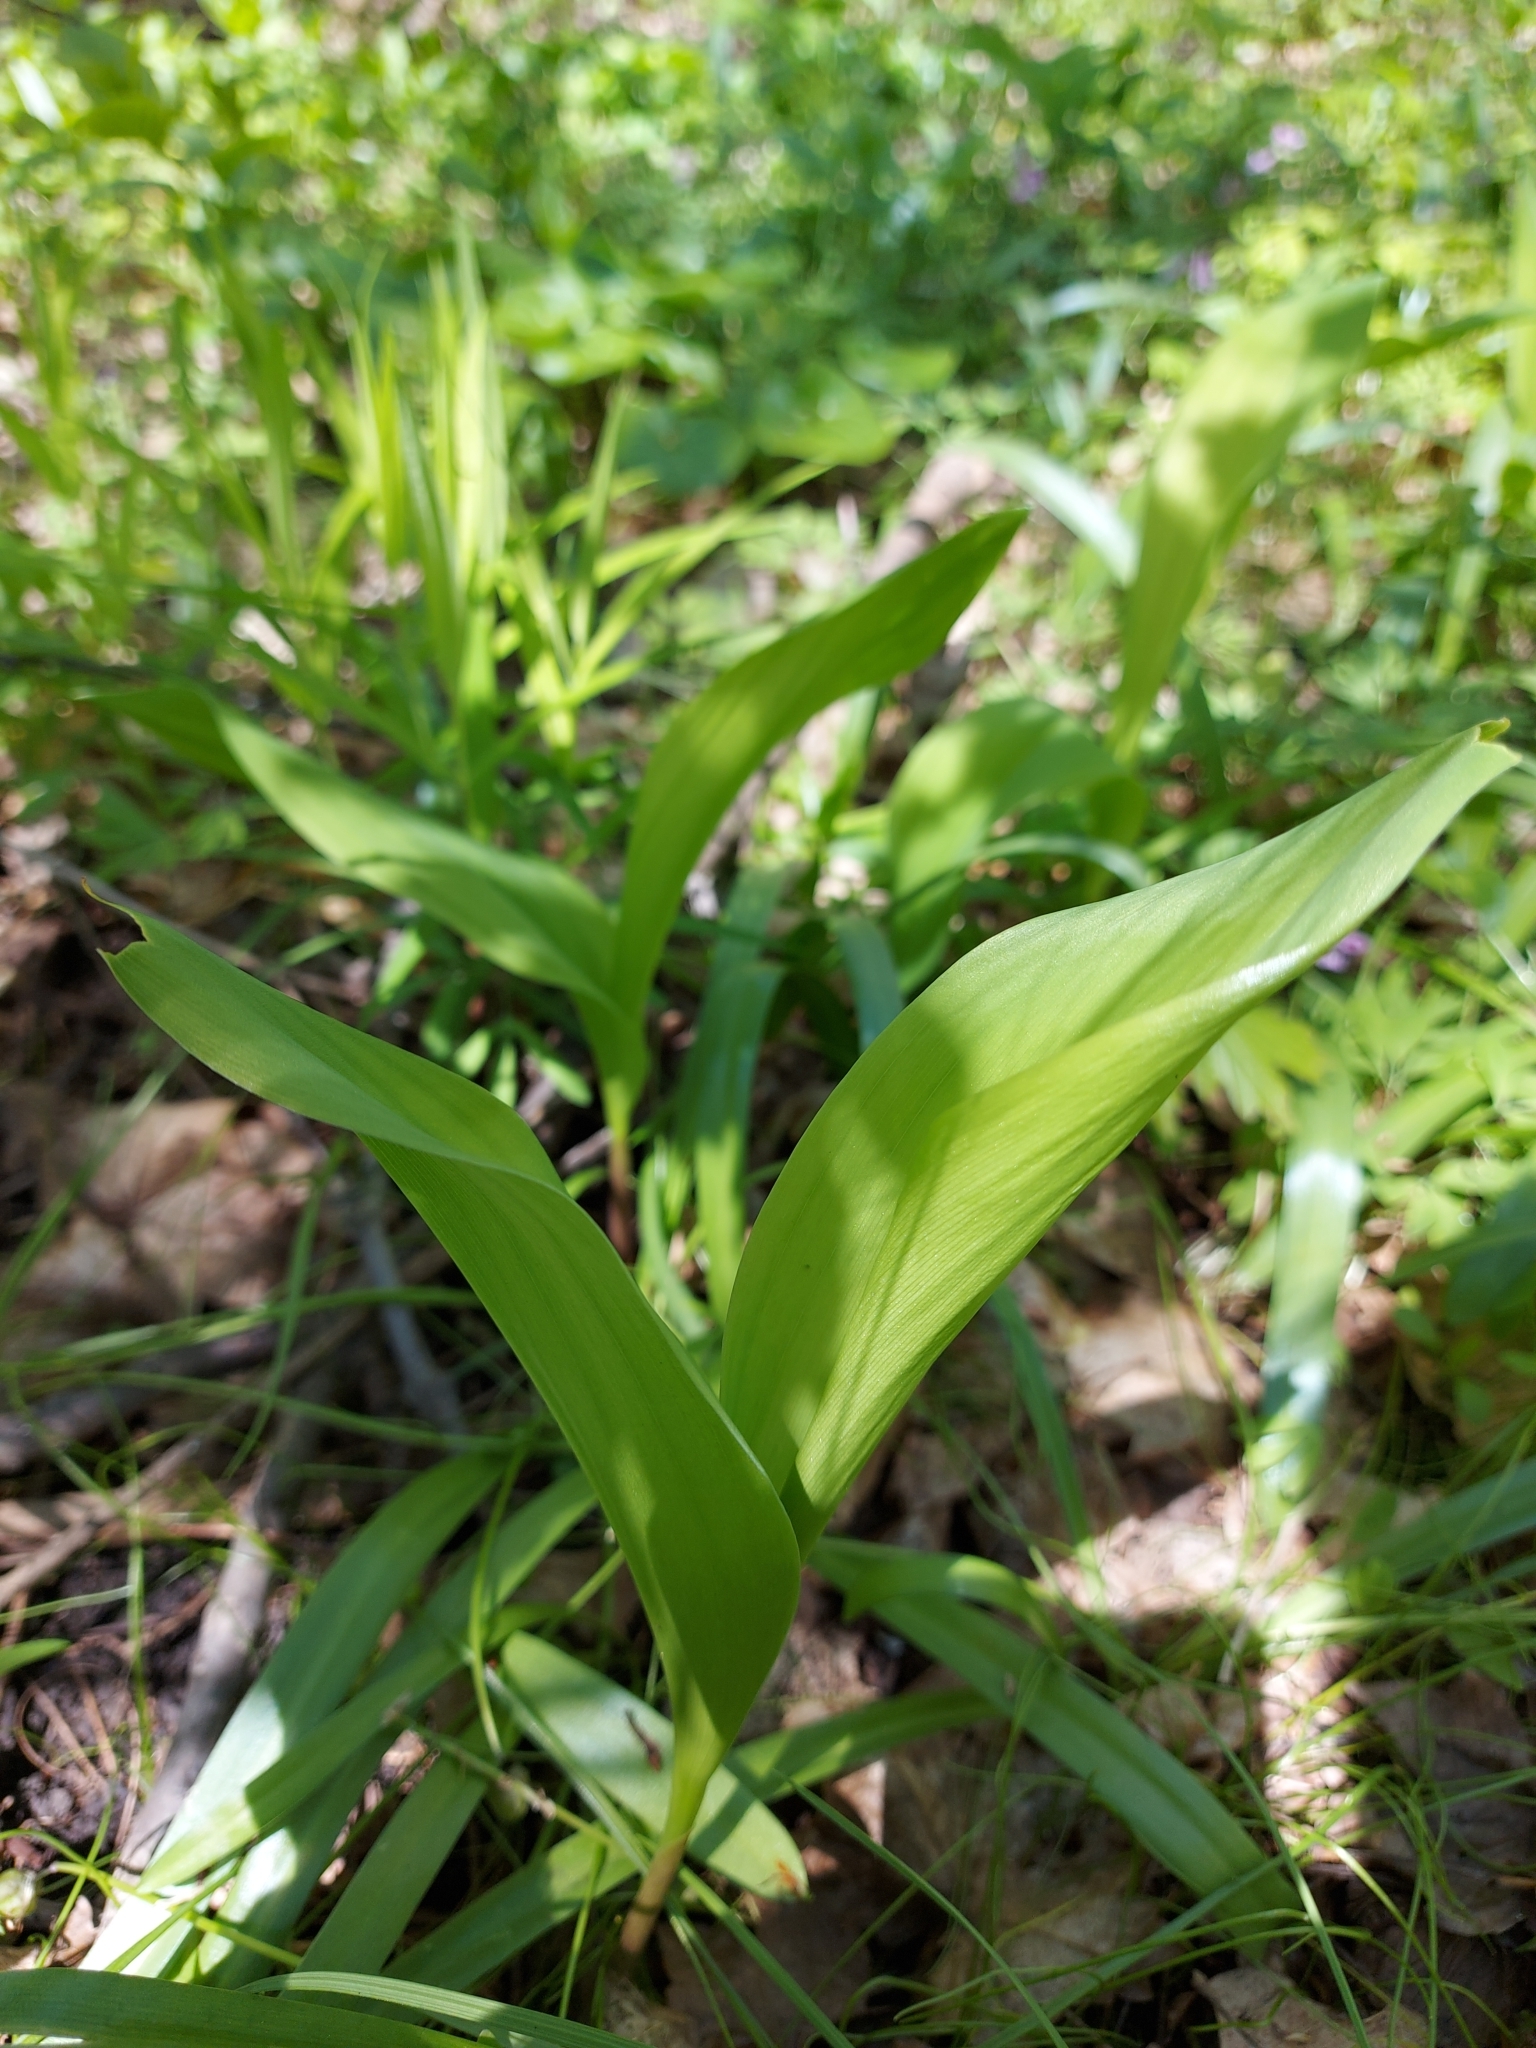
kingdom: Plantae
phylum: Tracheophyta
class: Liliopsida
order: Asparagales
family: Asparagaceae
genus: Convallaria
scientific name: Convallaria majalis
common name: Lily-of-the-valley
